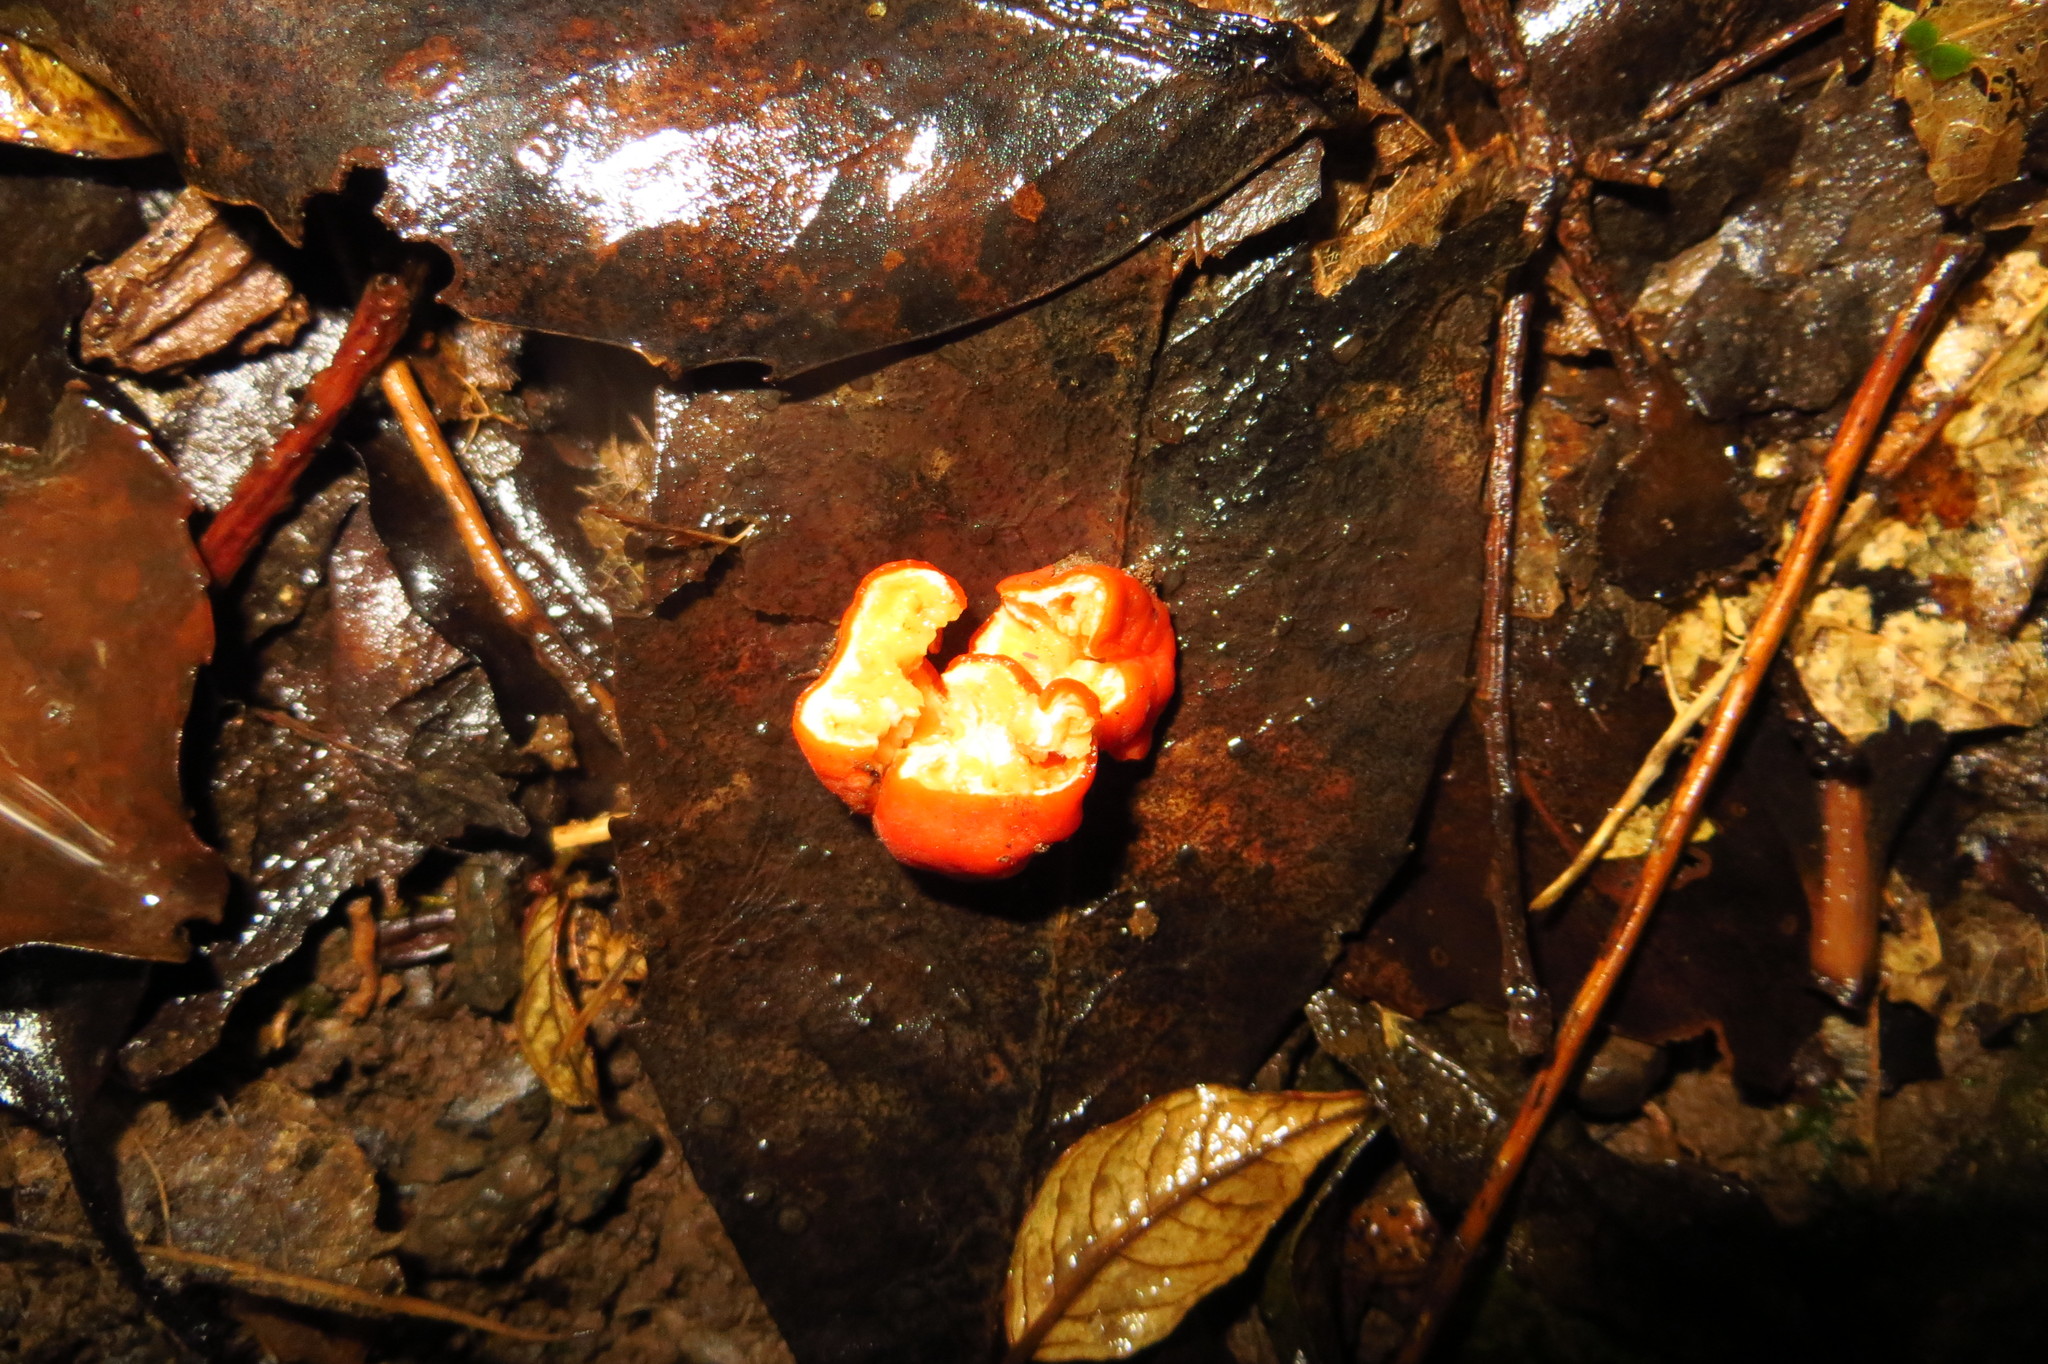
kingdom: Fungi
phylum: Ascomycota
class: Pezizomycetes
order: Pezizales
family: Pyronemataceae
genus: Paurocotylis
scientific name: Paurocotylis pila
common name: Scarlet berry truffle
